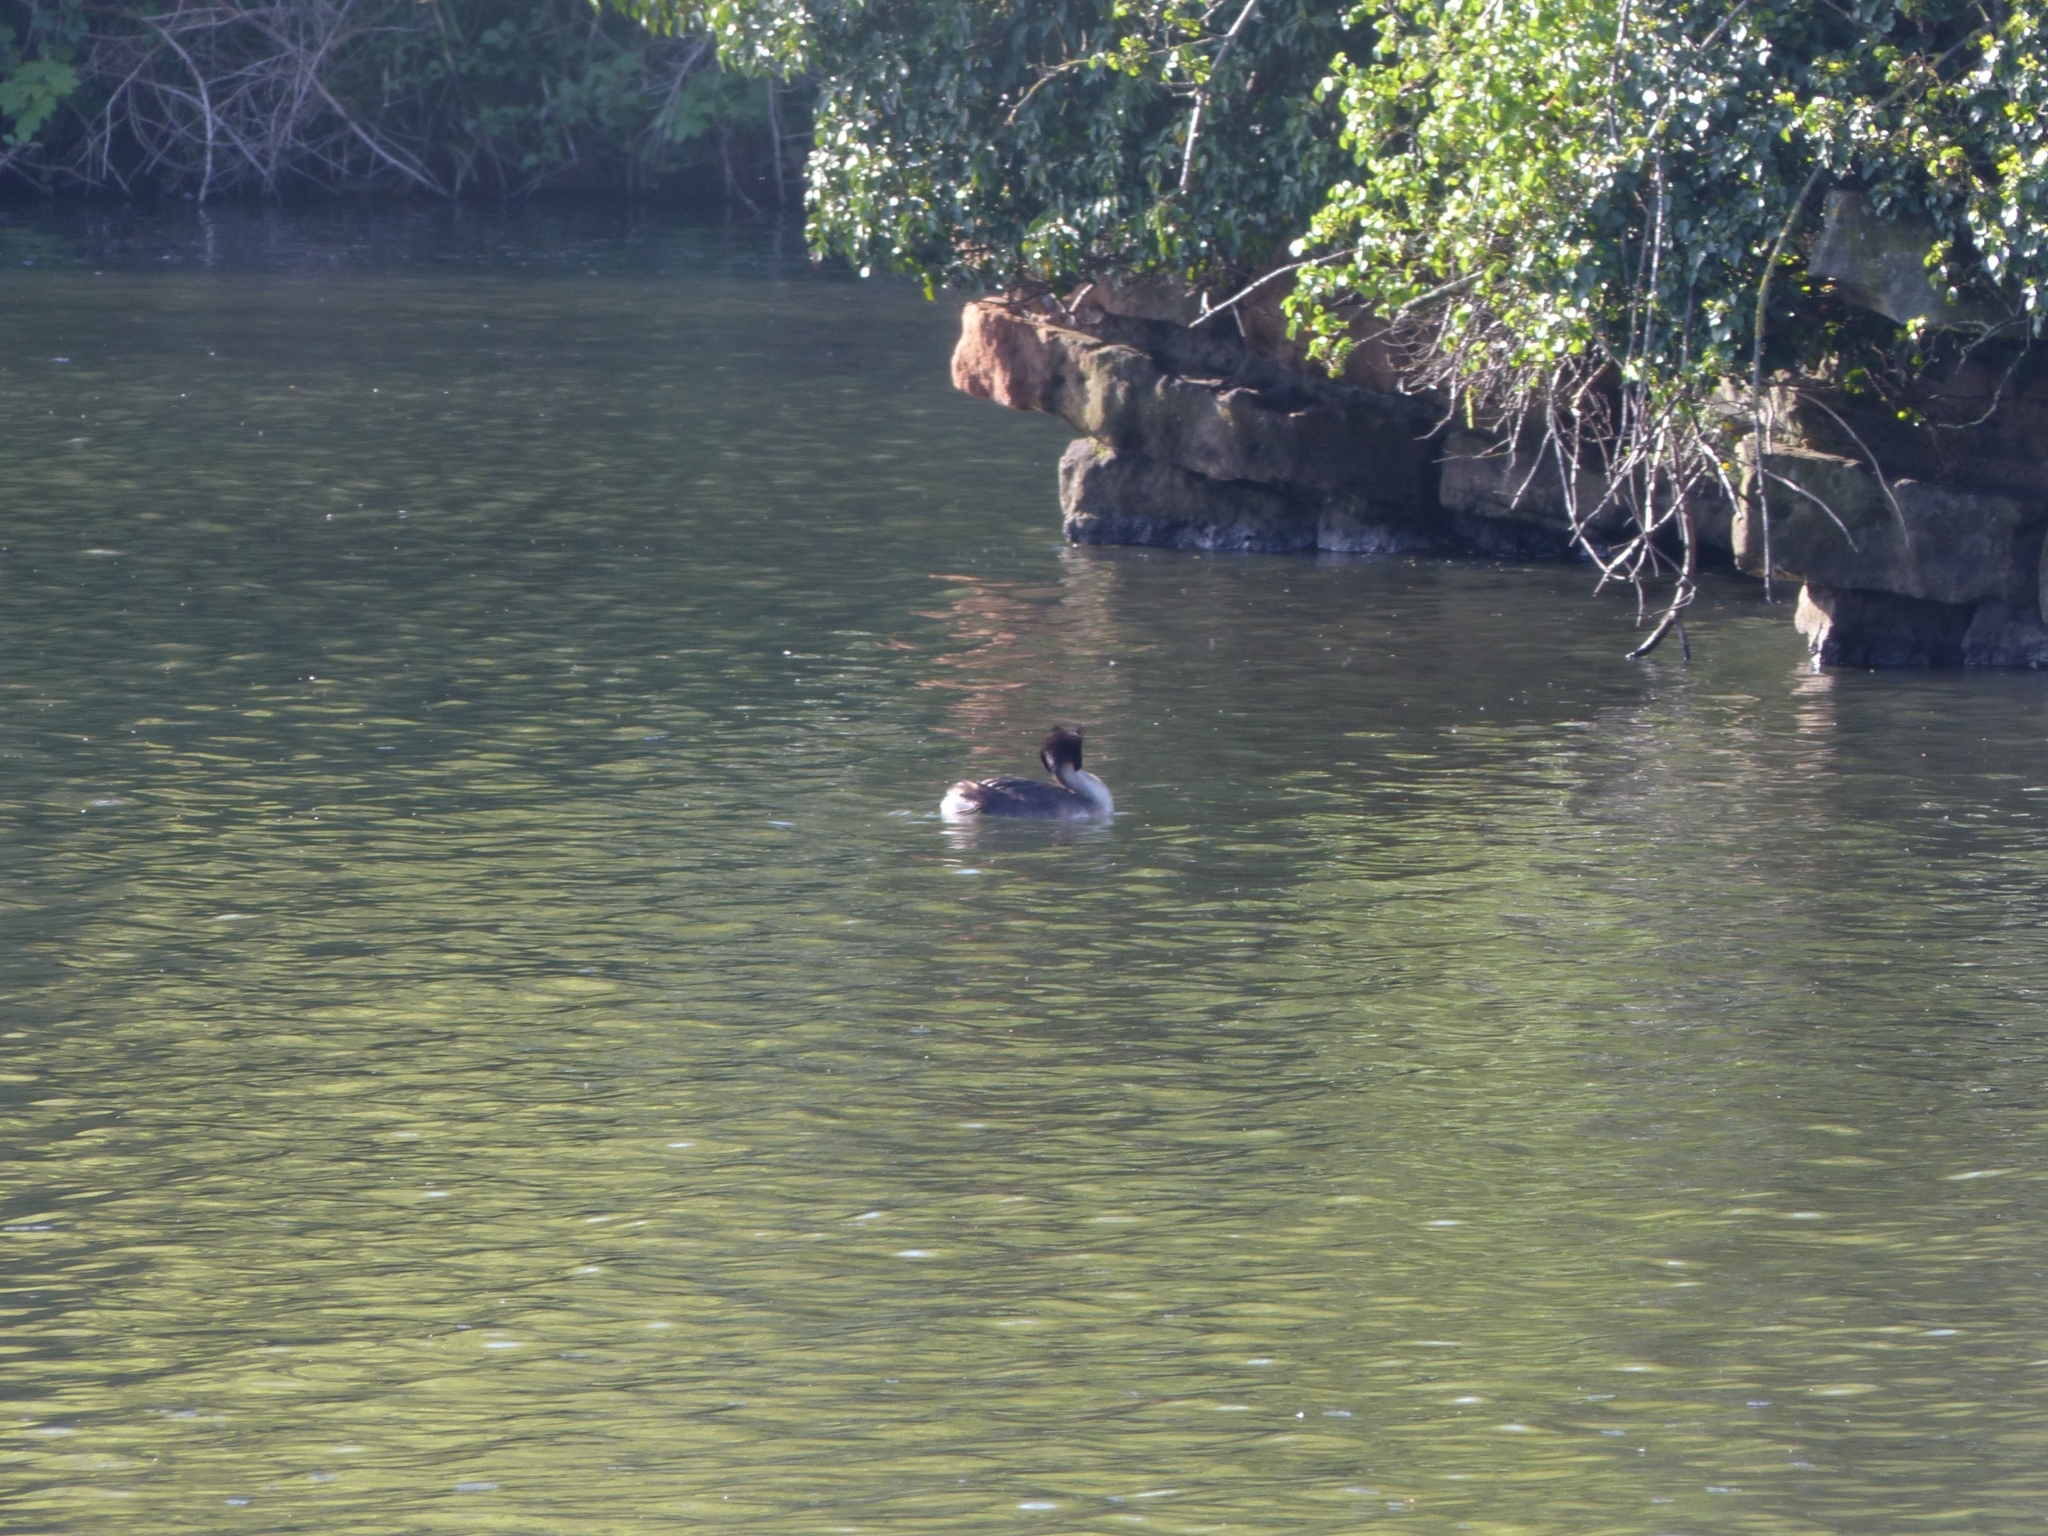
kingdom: Animalia
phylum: Chordata
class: Aves
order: Podicipediformes
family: Podicipedidae
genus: Podiceps
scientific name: Podiceps cristatus
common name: Great crested grebe
